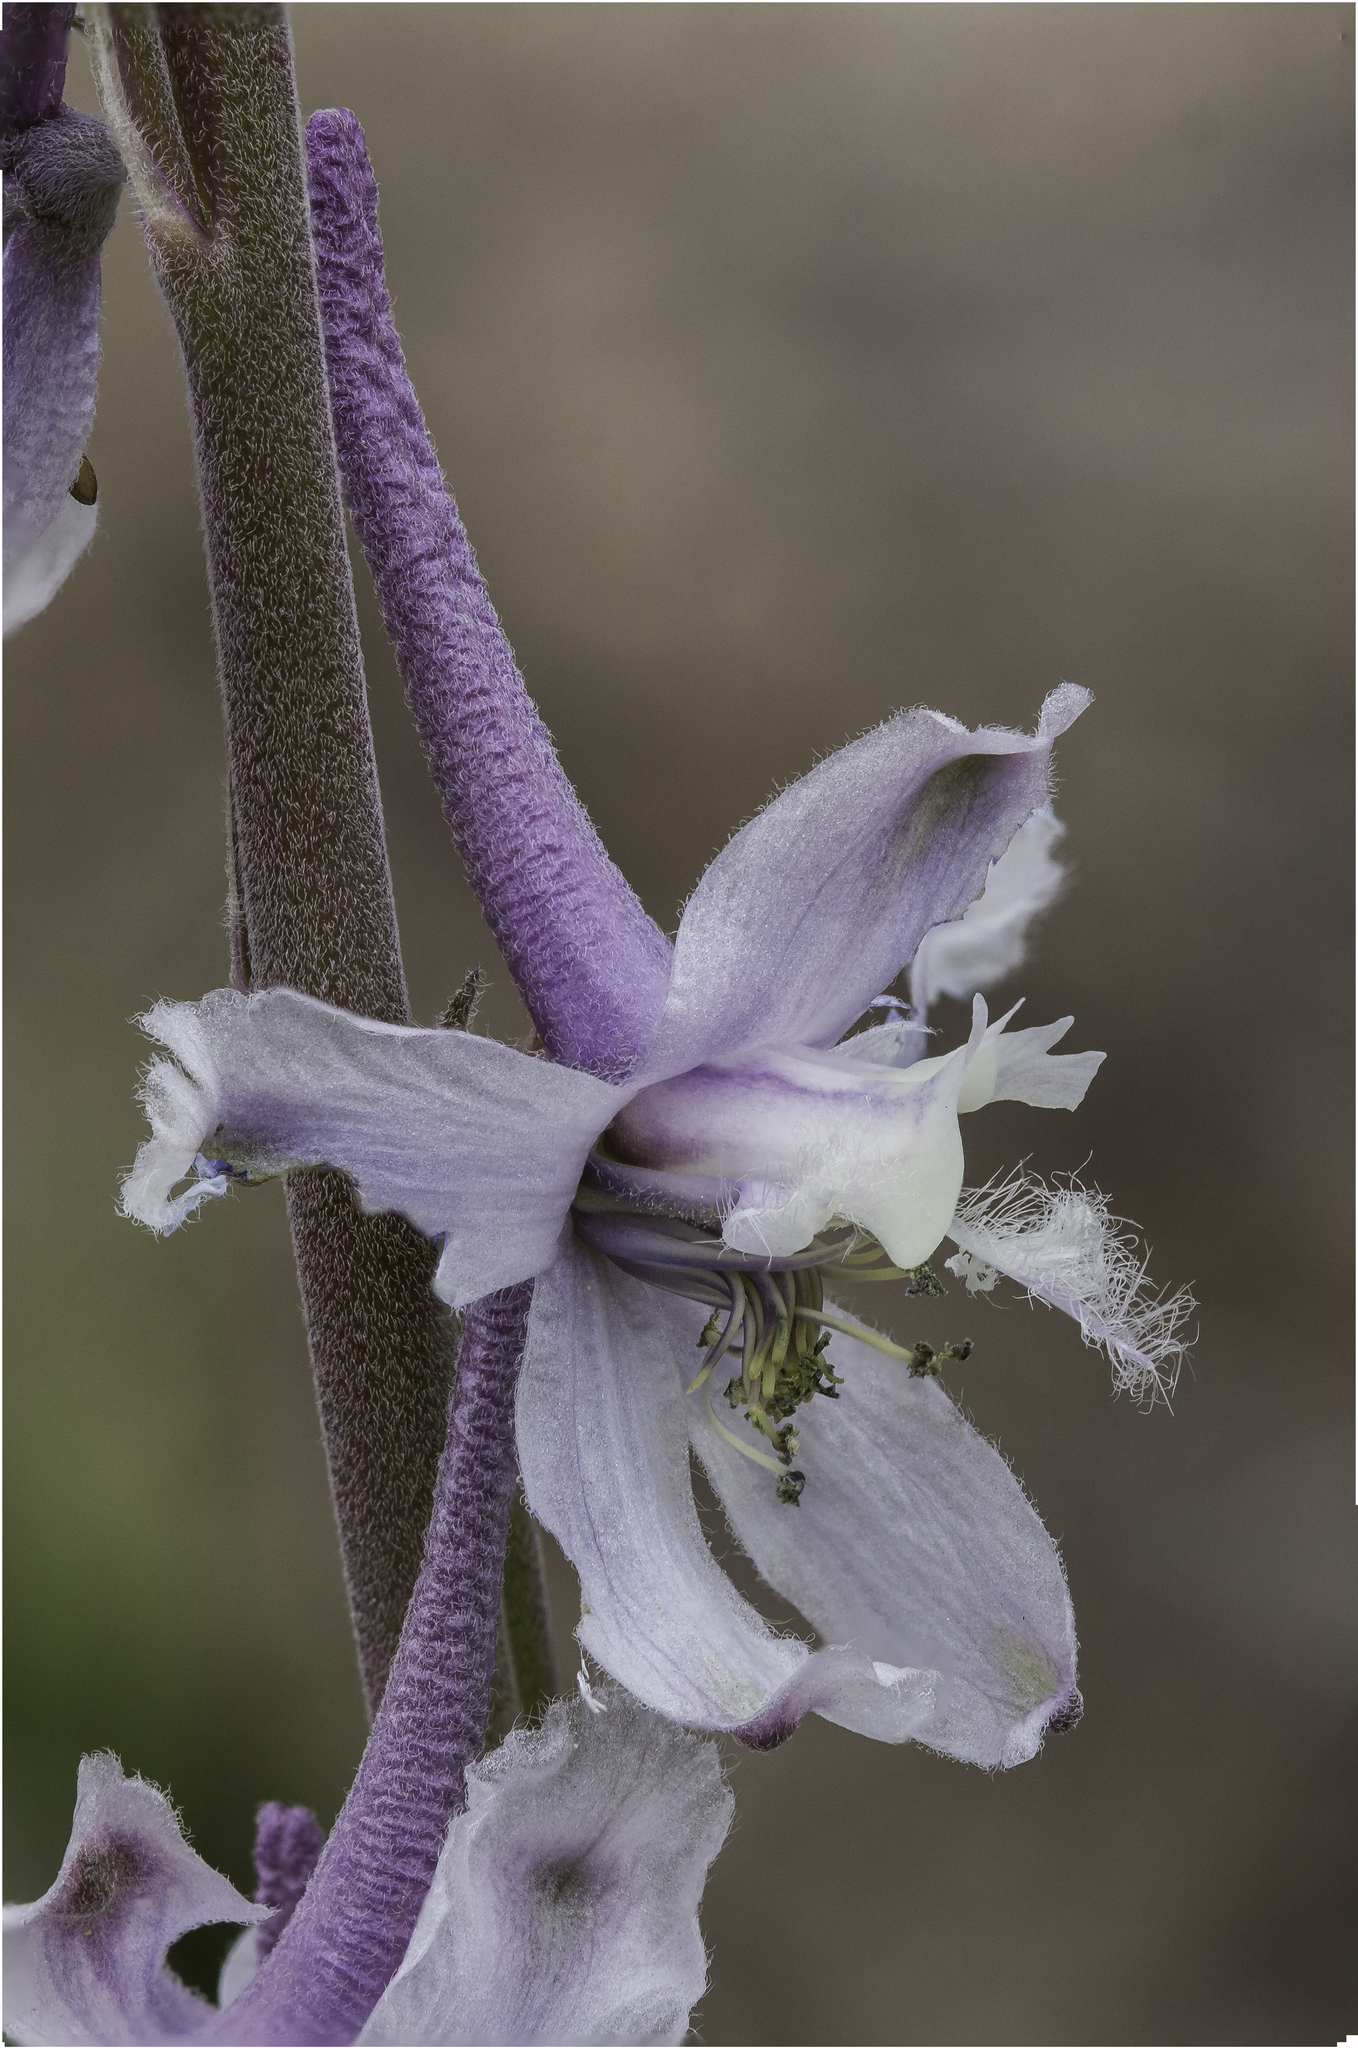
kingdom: Plantae
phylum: Tracheophyta
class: Magnoliopsida
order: Ranunculales
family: Ranunculaceae
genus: Delphinium
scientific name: Delphinium wootonii
